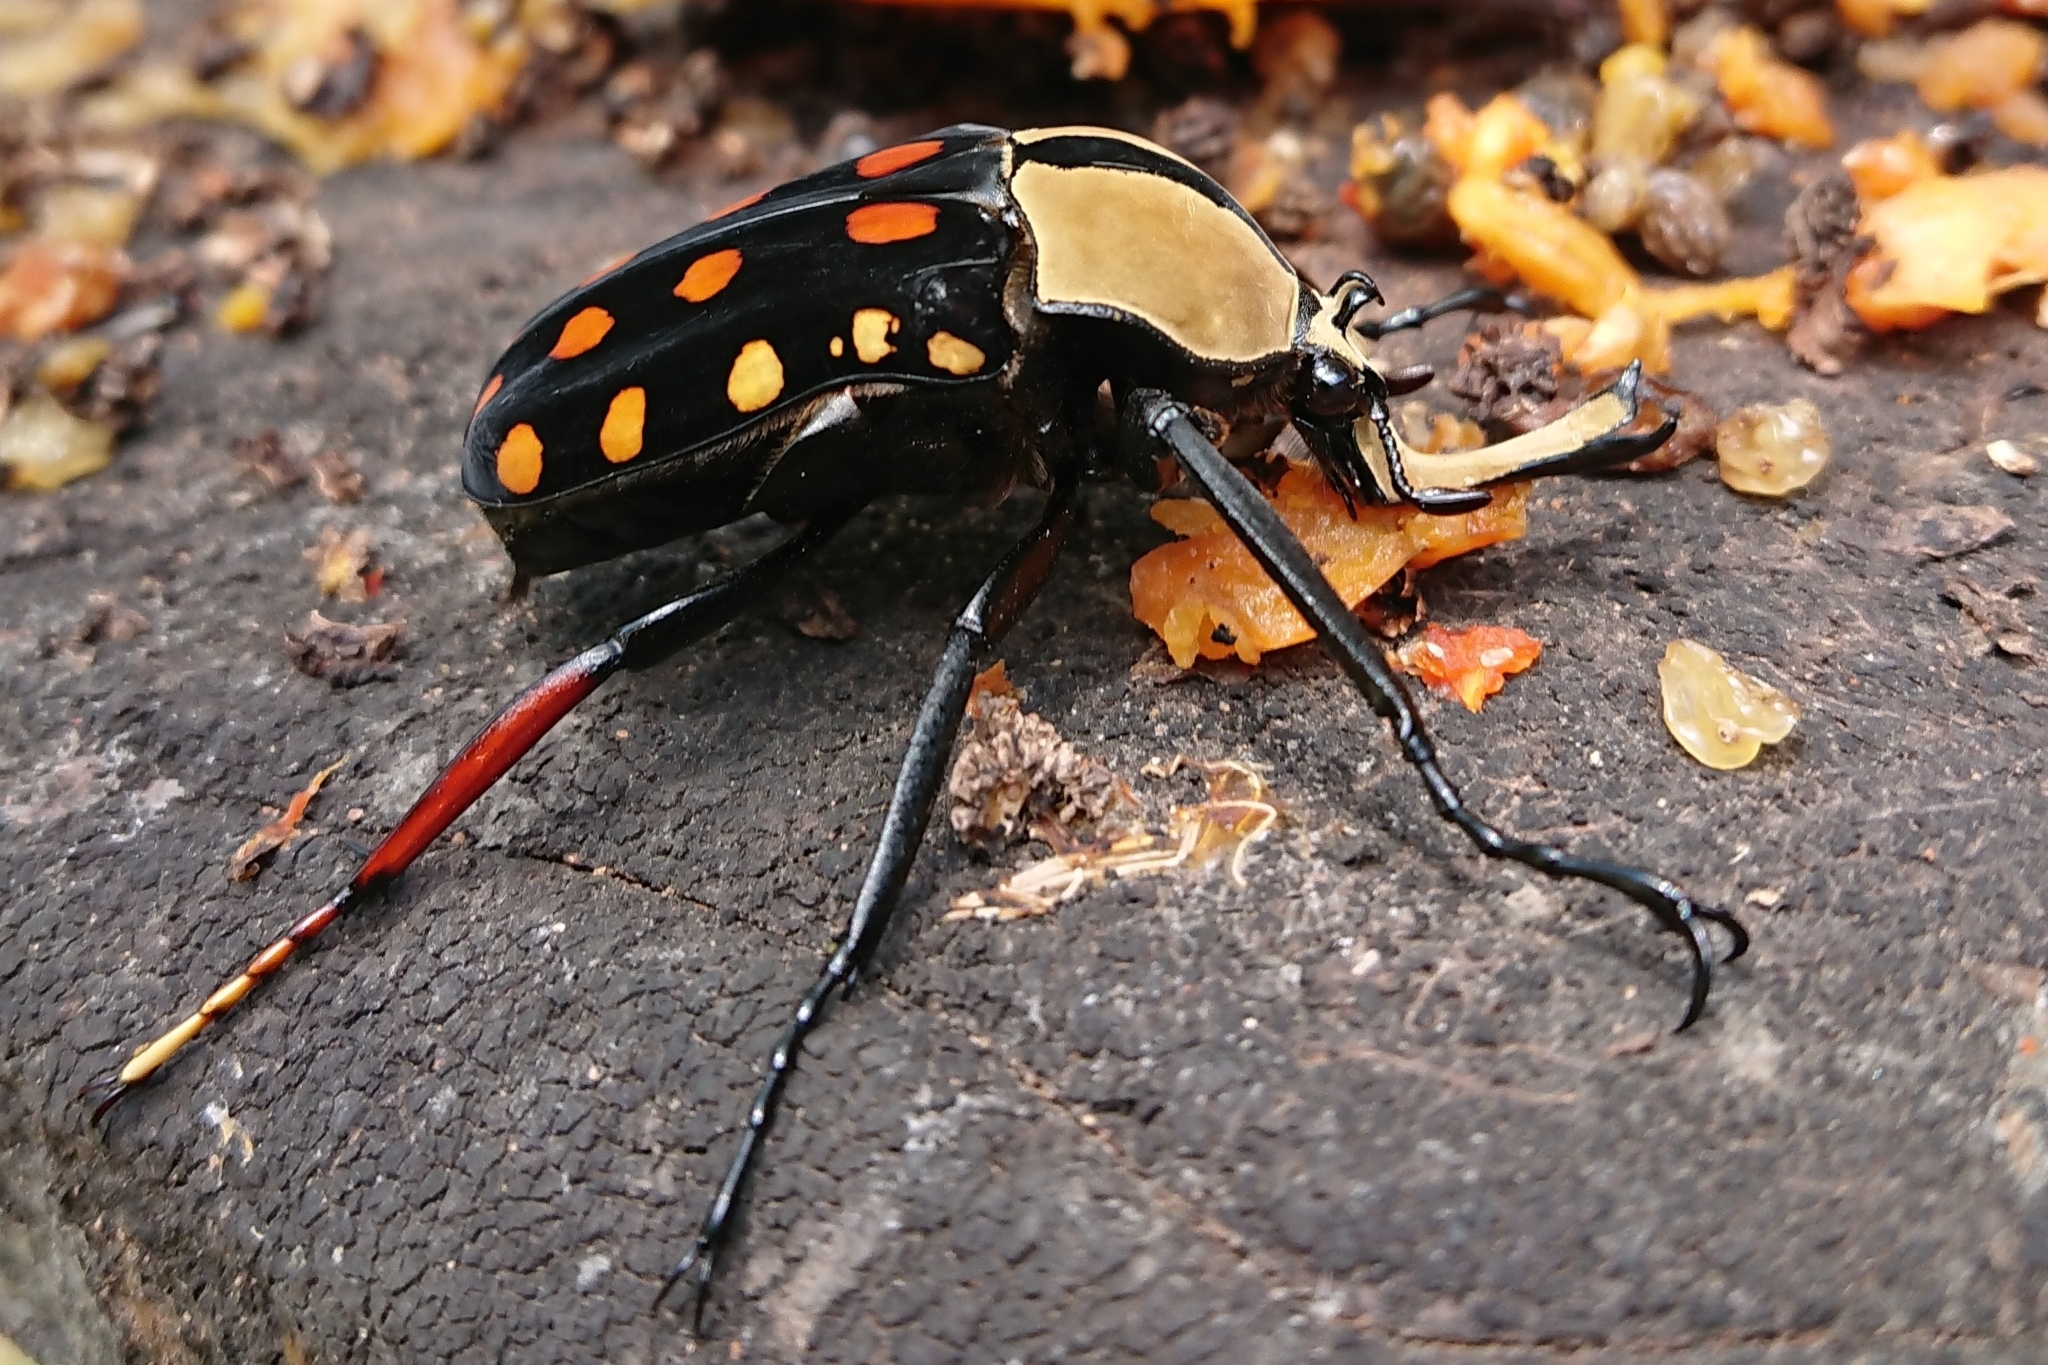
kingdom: Animalia
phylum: Arthropoda
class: Insecta
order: Coleoptera
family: Scarabaeidae
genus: Mecynorhina
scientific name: Mecynorhina passerinii
